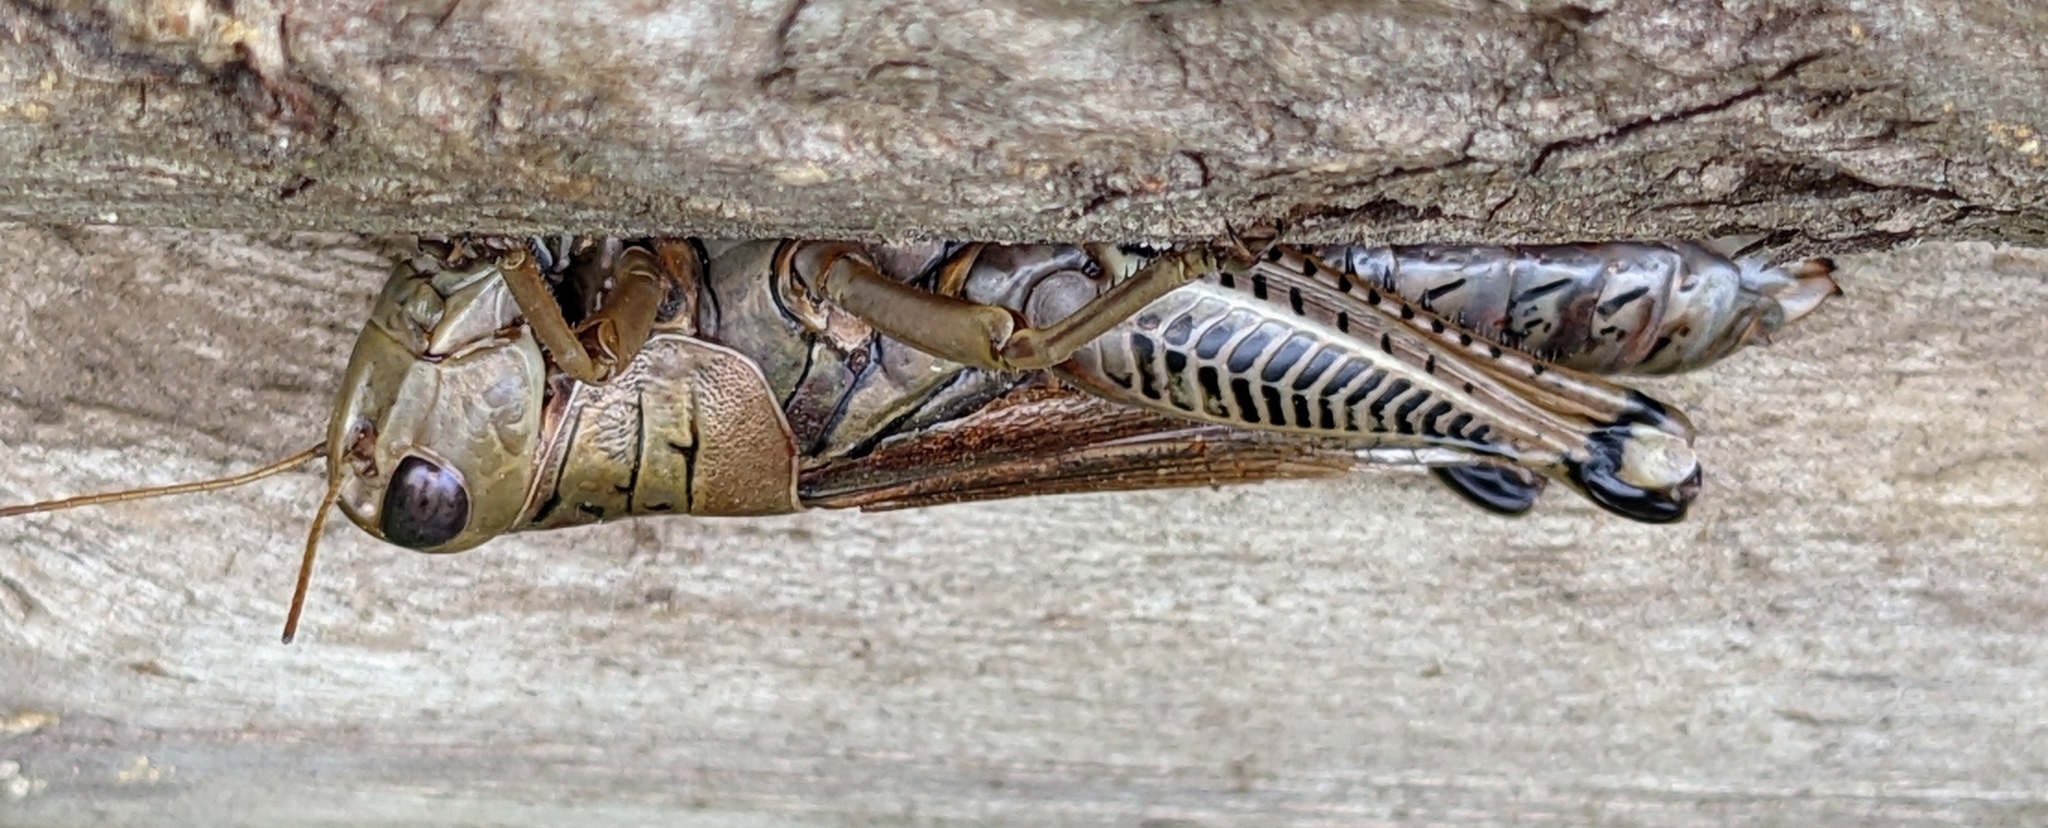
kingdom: Animalia
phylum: Arthropoda
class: Insecta
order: Orthoptera
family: Acrididae
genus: Melanoplus
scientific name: Melanoplus differentialis
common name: Differential grasshopper
